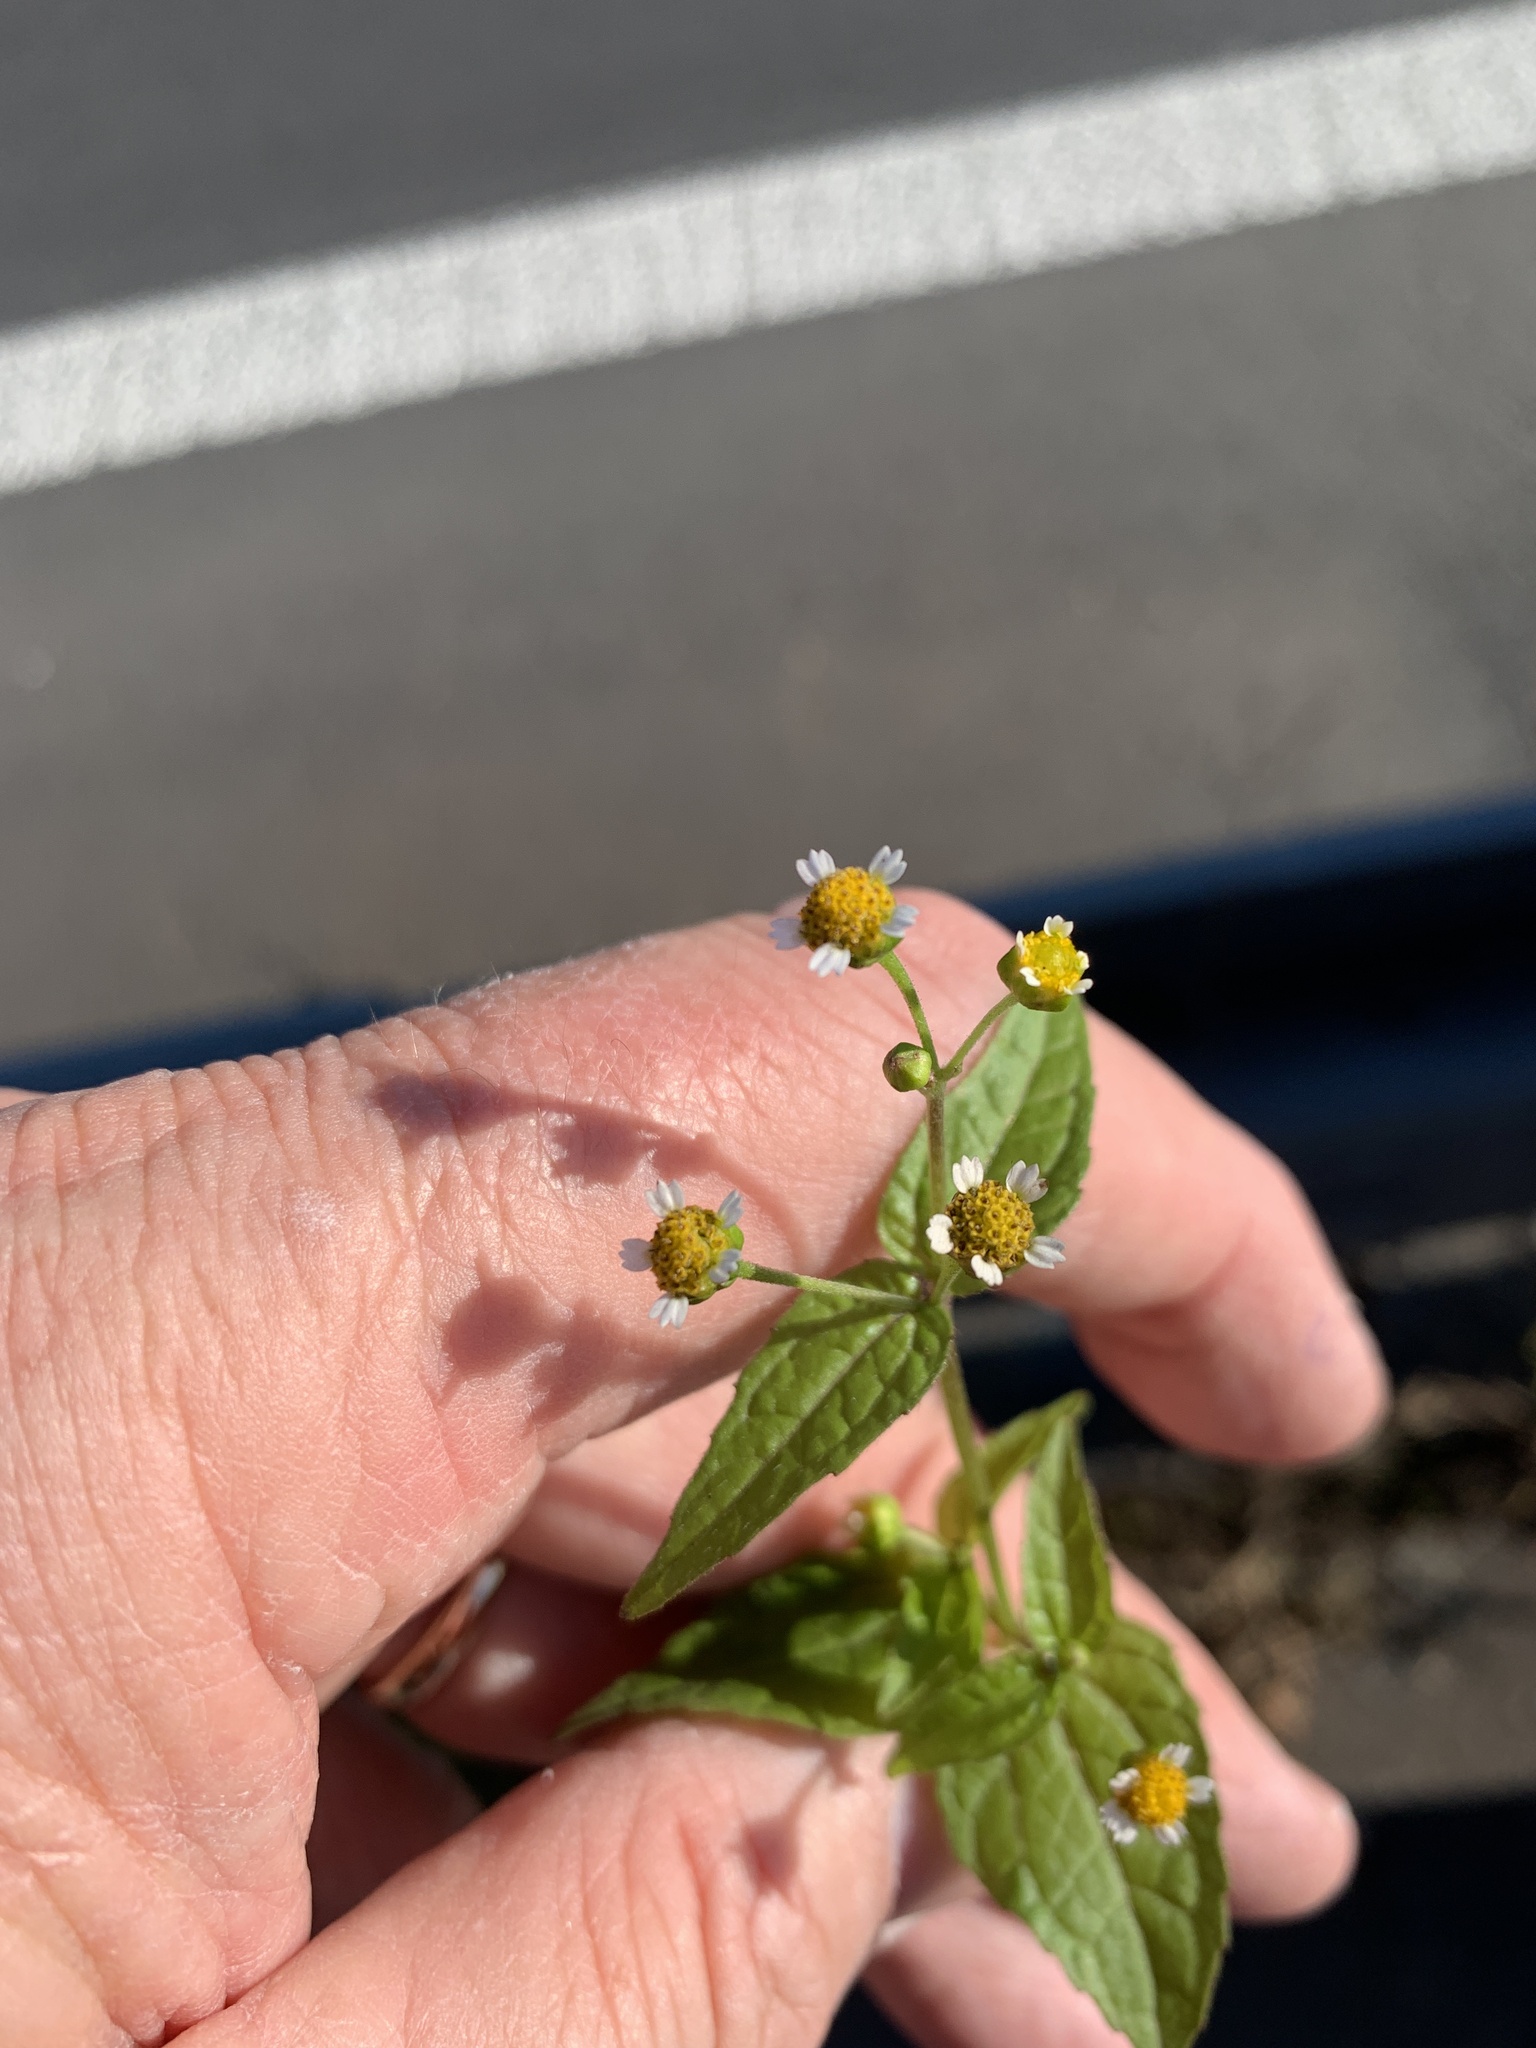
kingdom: Plantae
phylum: Tracheophyta
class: Magnoliopsida
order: Asterales
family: Asteraceae
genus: Galinsoga
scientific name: Galinsoga parviflora
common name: Gallant soldier
